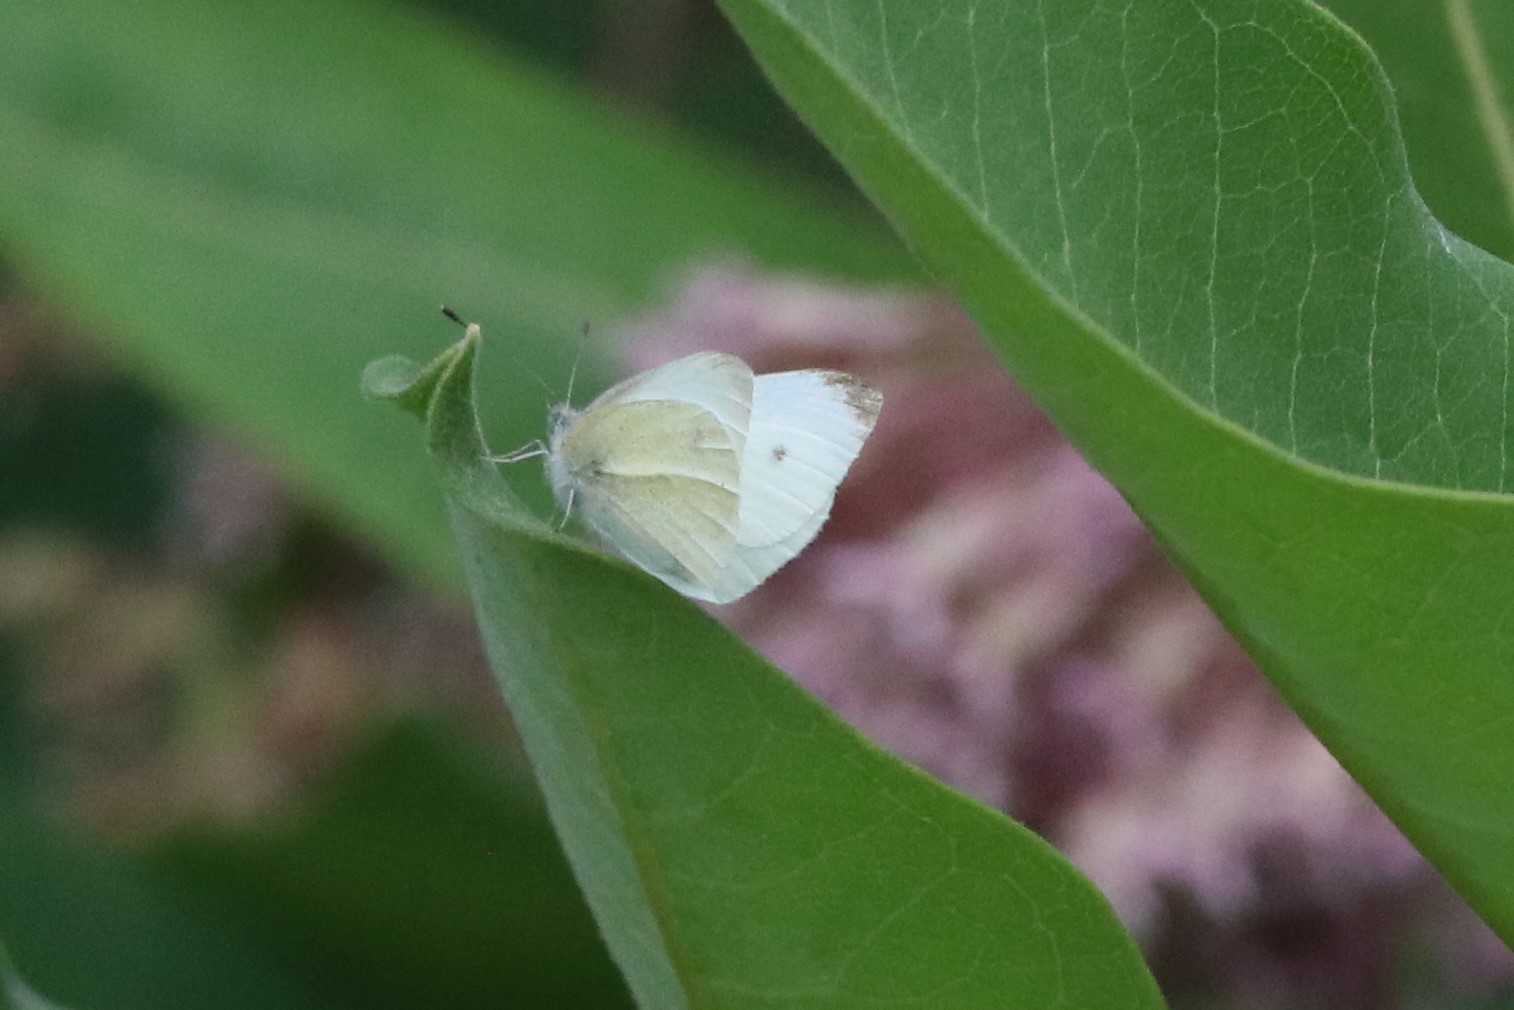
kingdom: Animalia
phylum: Arthropoda
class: Insecta
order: Lepidoptera
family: Pieridae
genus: Pieris
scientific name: Pieris rapae
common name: Small white
